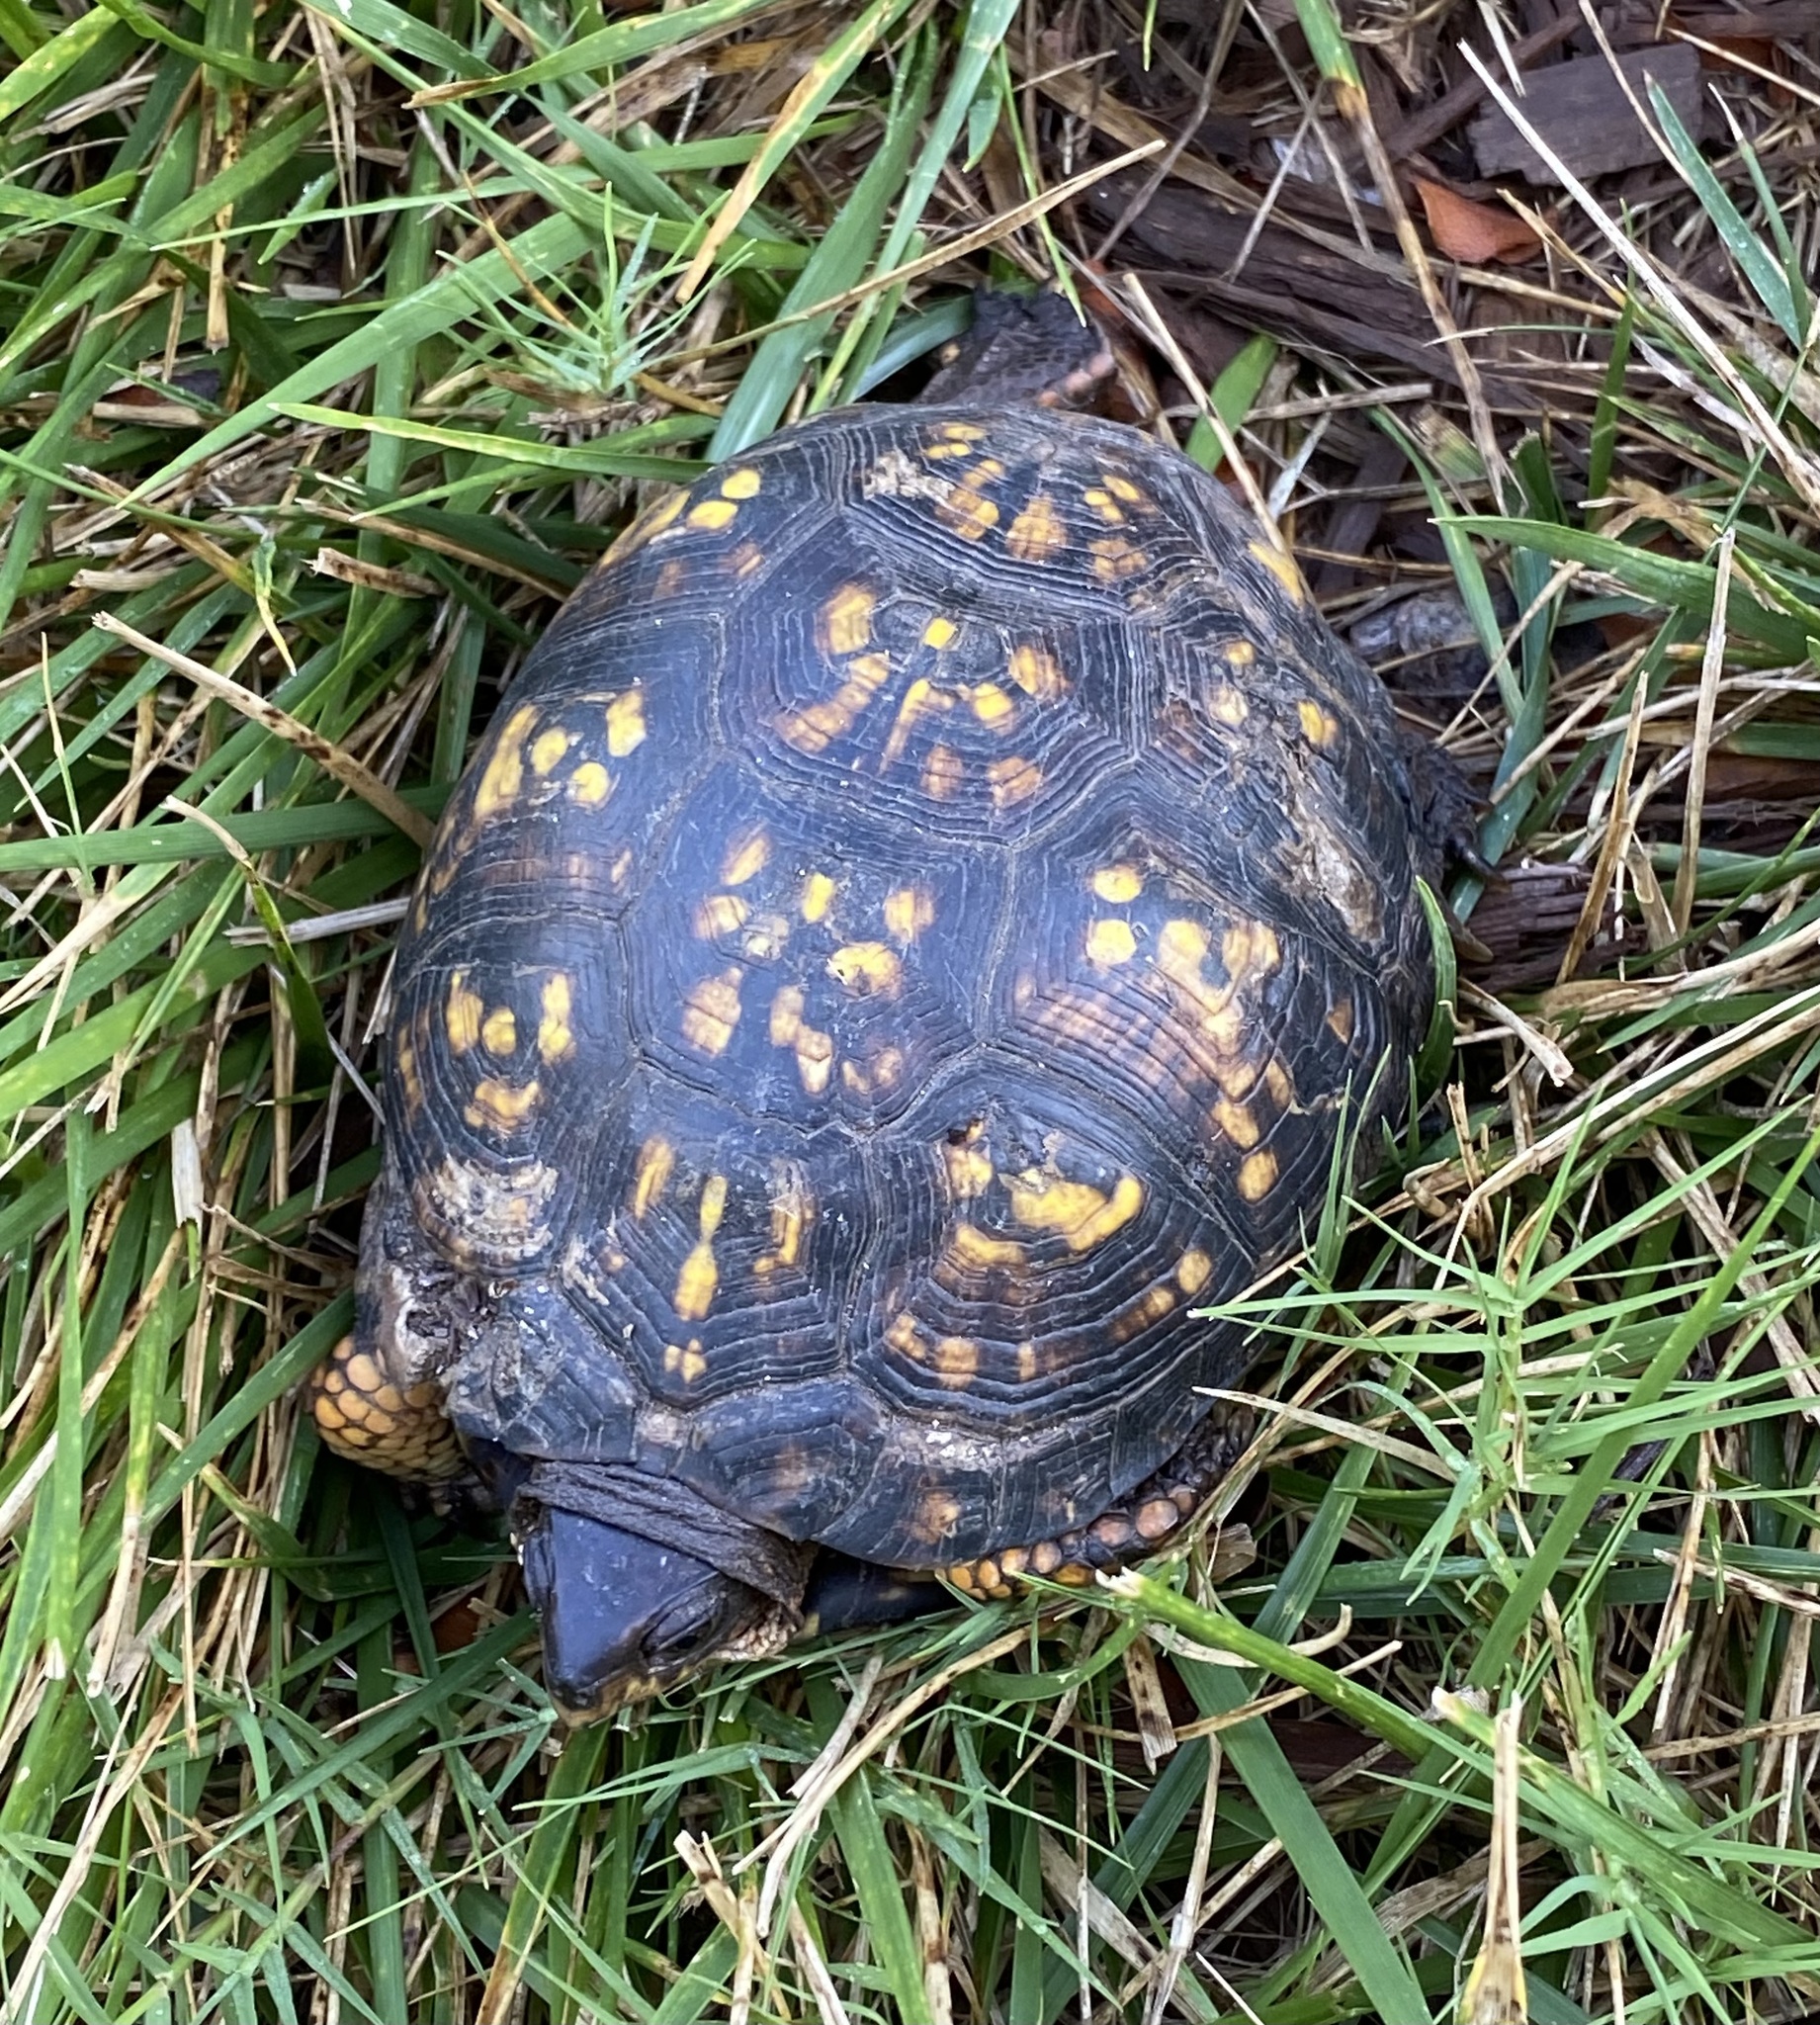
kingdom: Animalia
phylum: Chordata
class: Testudines
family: Emydidae
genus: Terrapene
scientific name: Terrapene carolina
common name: Common box turtle
